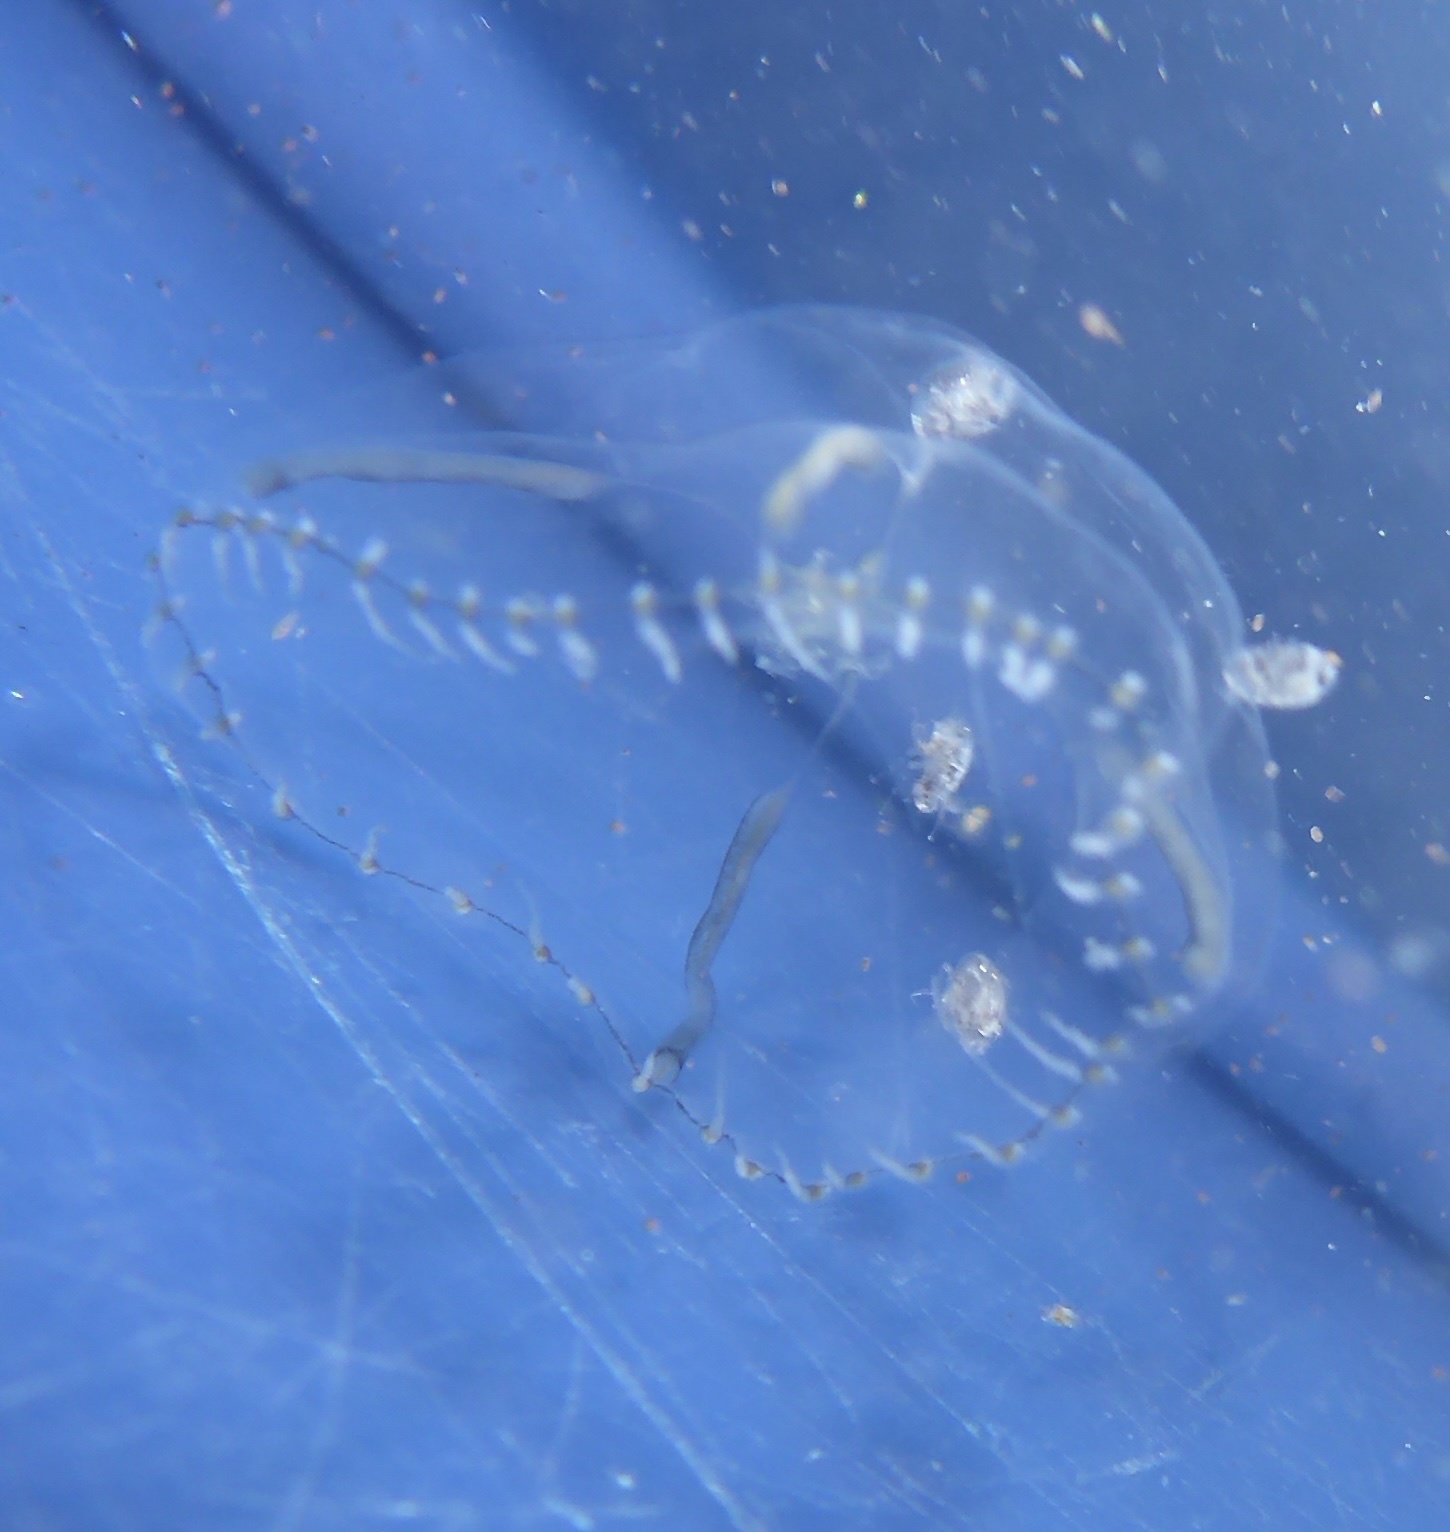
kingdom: Animalia
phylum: Cnidaria
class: Hydrozoa
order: Leptothecata
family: Campanulariidae
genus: Clytia
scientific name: Clytia gregaria
